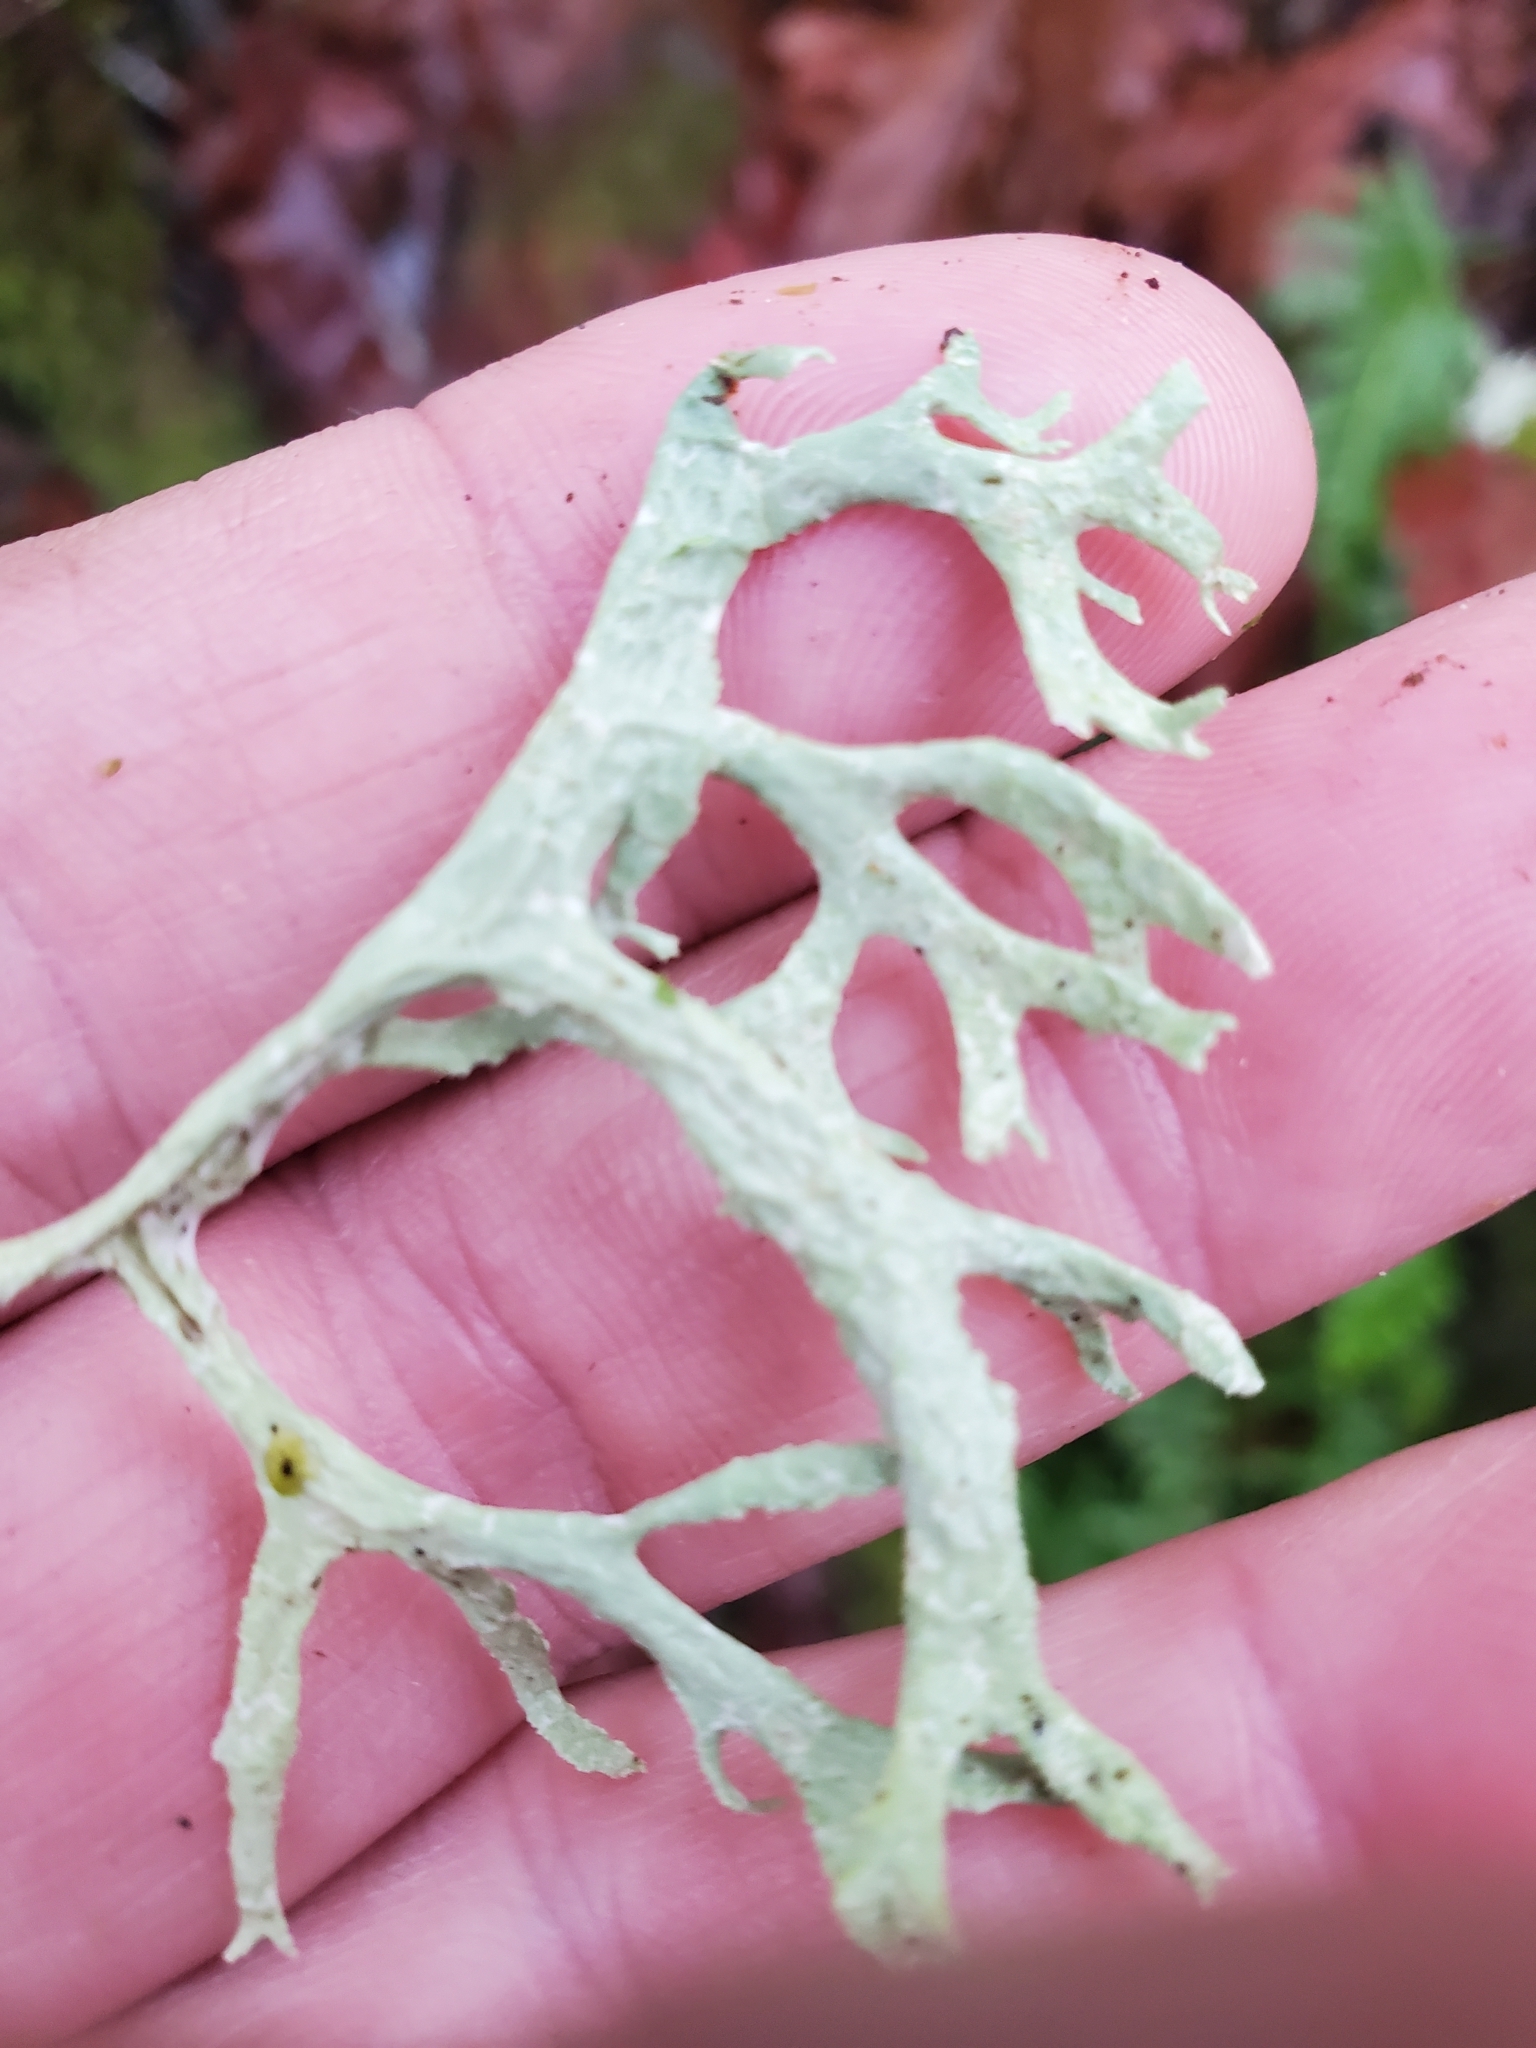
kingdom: Fungi
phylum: Ascomycota
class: Lecanoromycetes
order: Lecanorales
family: Parmeliaceae
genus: Evernia
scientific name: Evernia prunastri
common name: Oak moss
